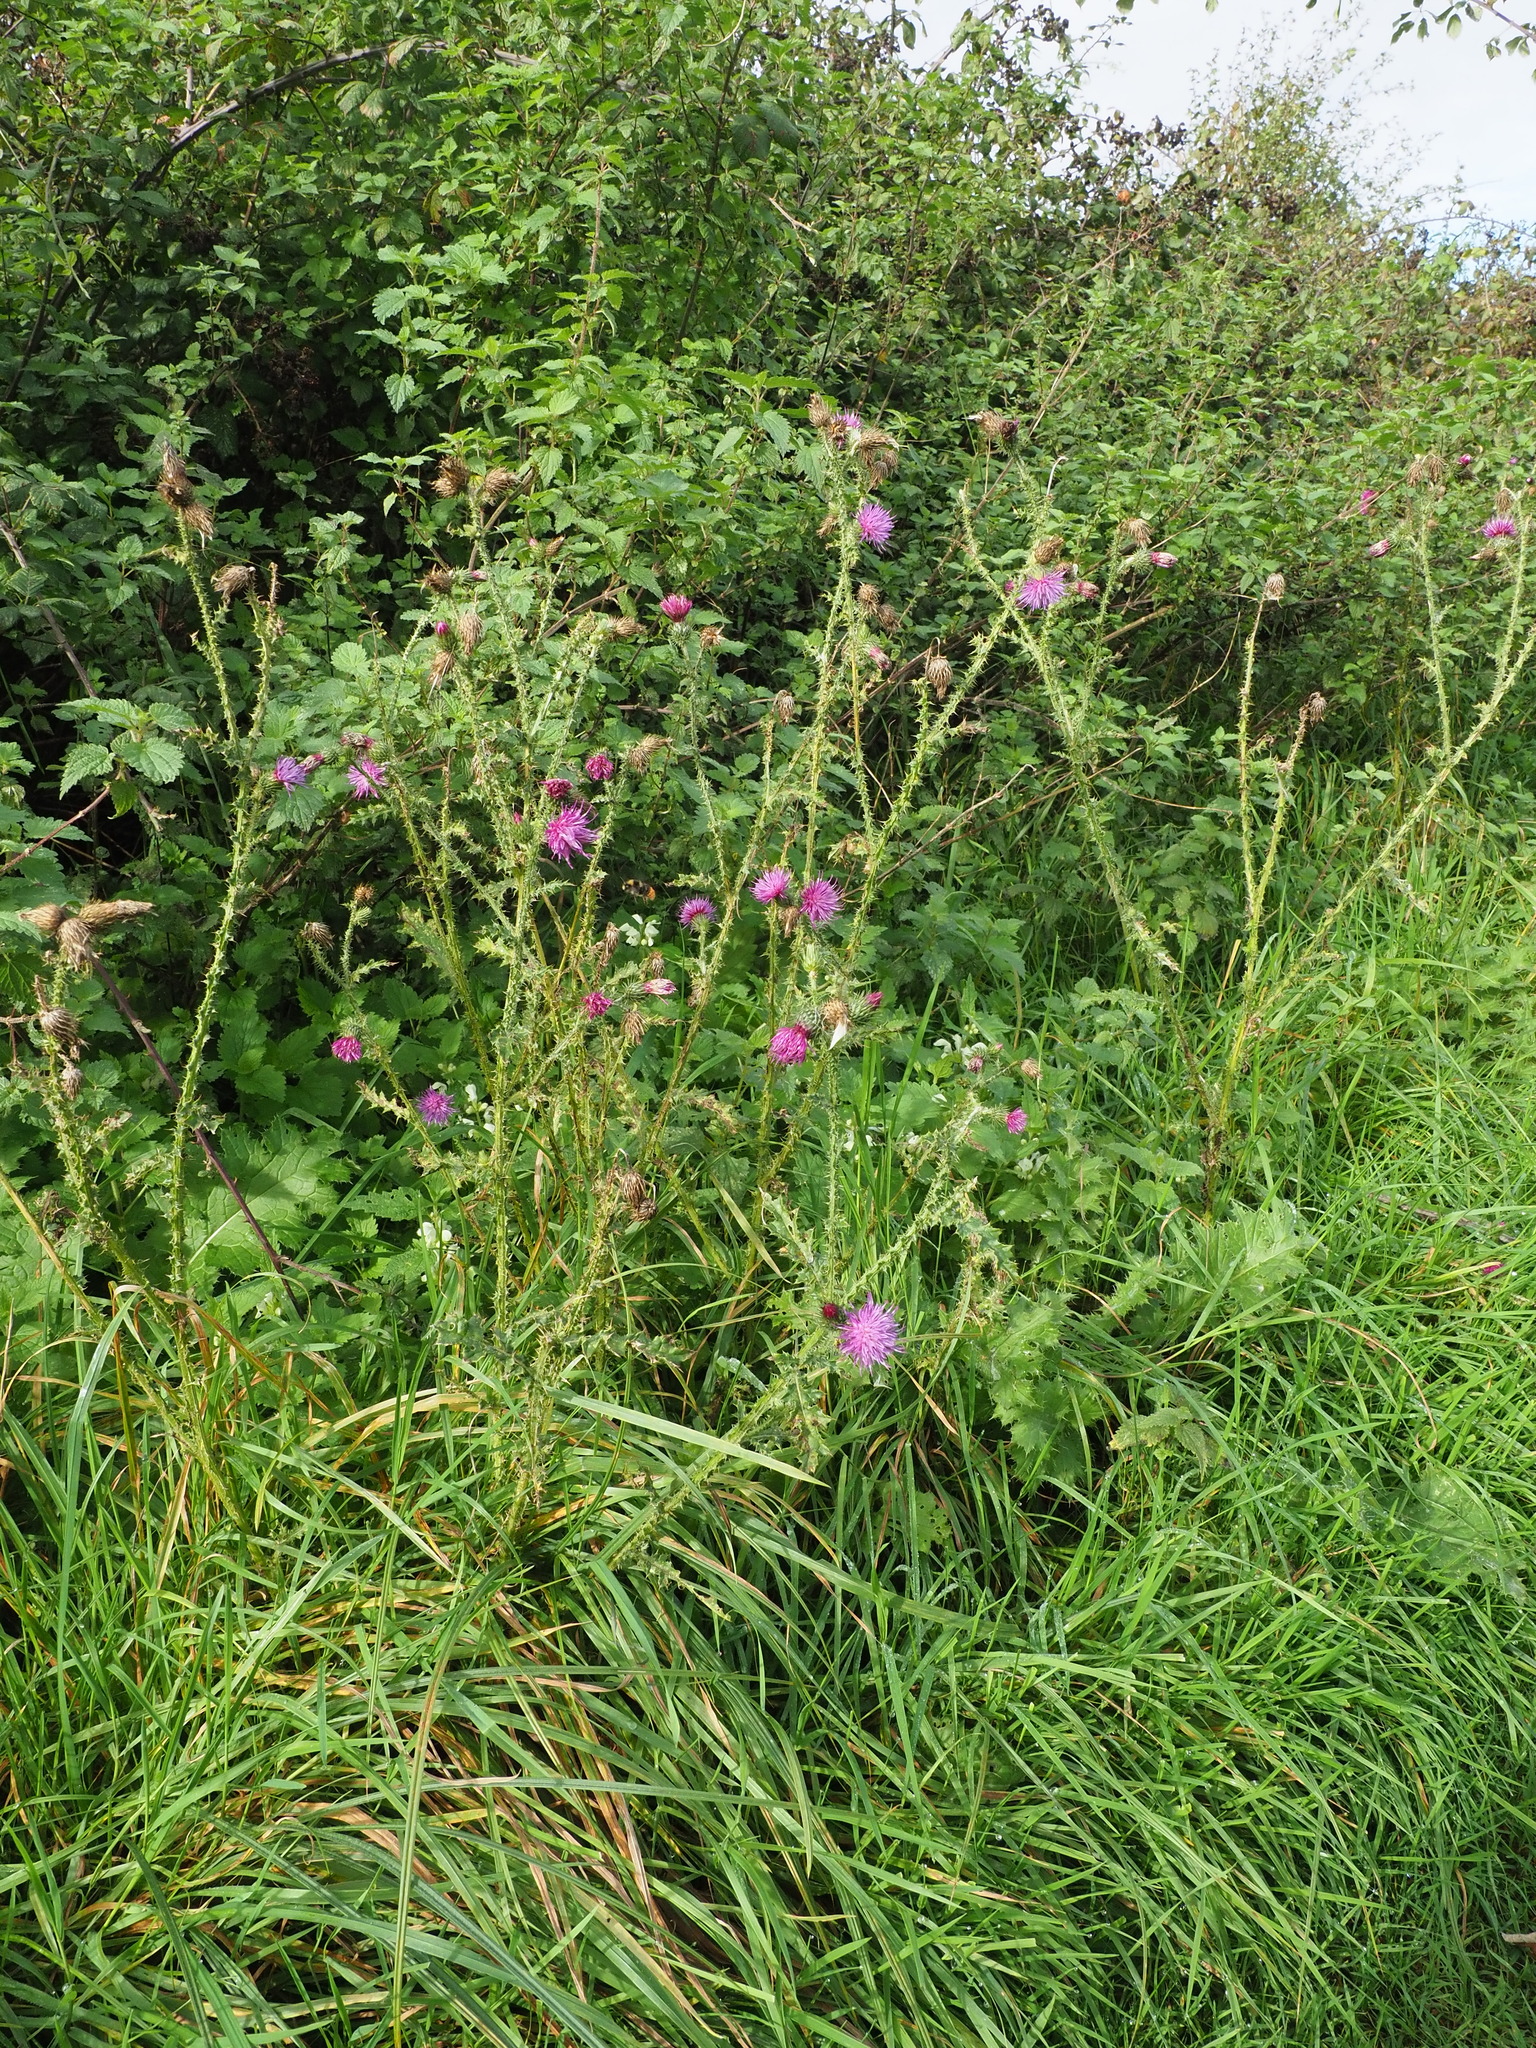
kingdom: Plantae
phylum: Tracheophyta
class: Magnoliopsida
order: Asterales
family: Asteraceae
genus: Carduus
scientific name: Carduus crispus
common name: Welted thistle
